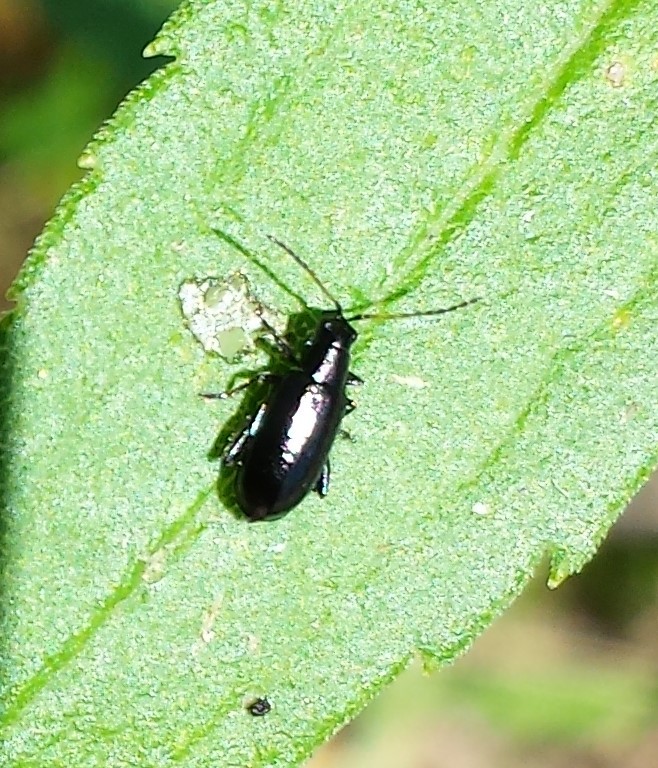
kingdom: Animalia
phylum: Arthropoda
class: Insecta
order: Coleoptera
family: Chrysomelidae
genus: Systena
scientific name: Systena hudsonias
